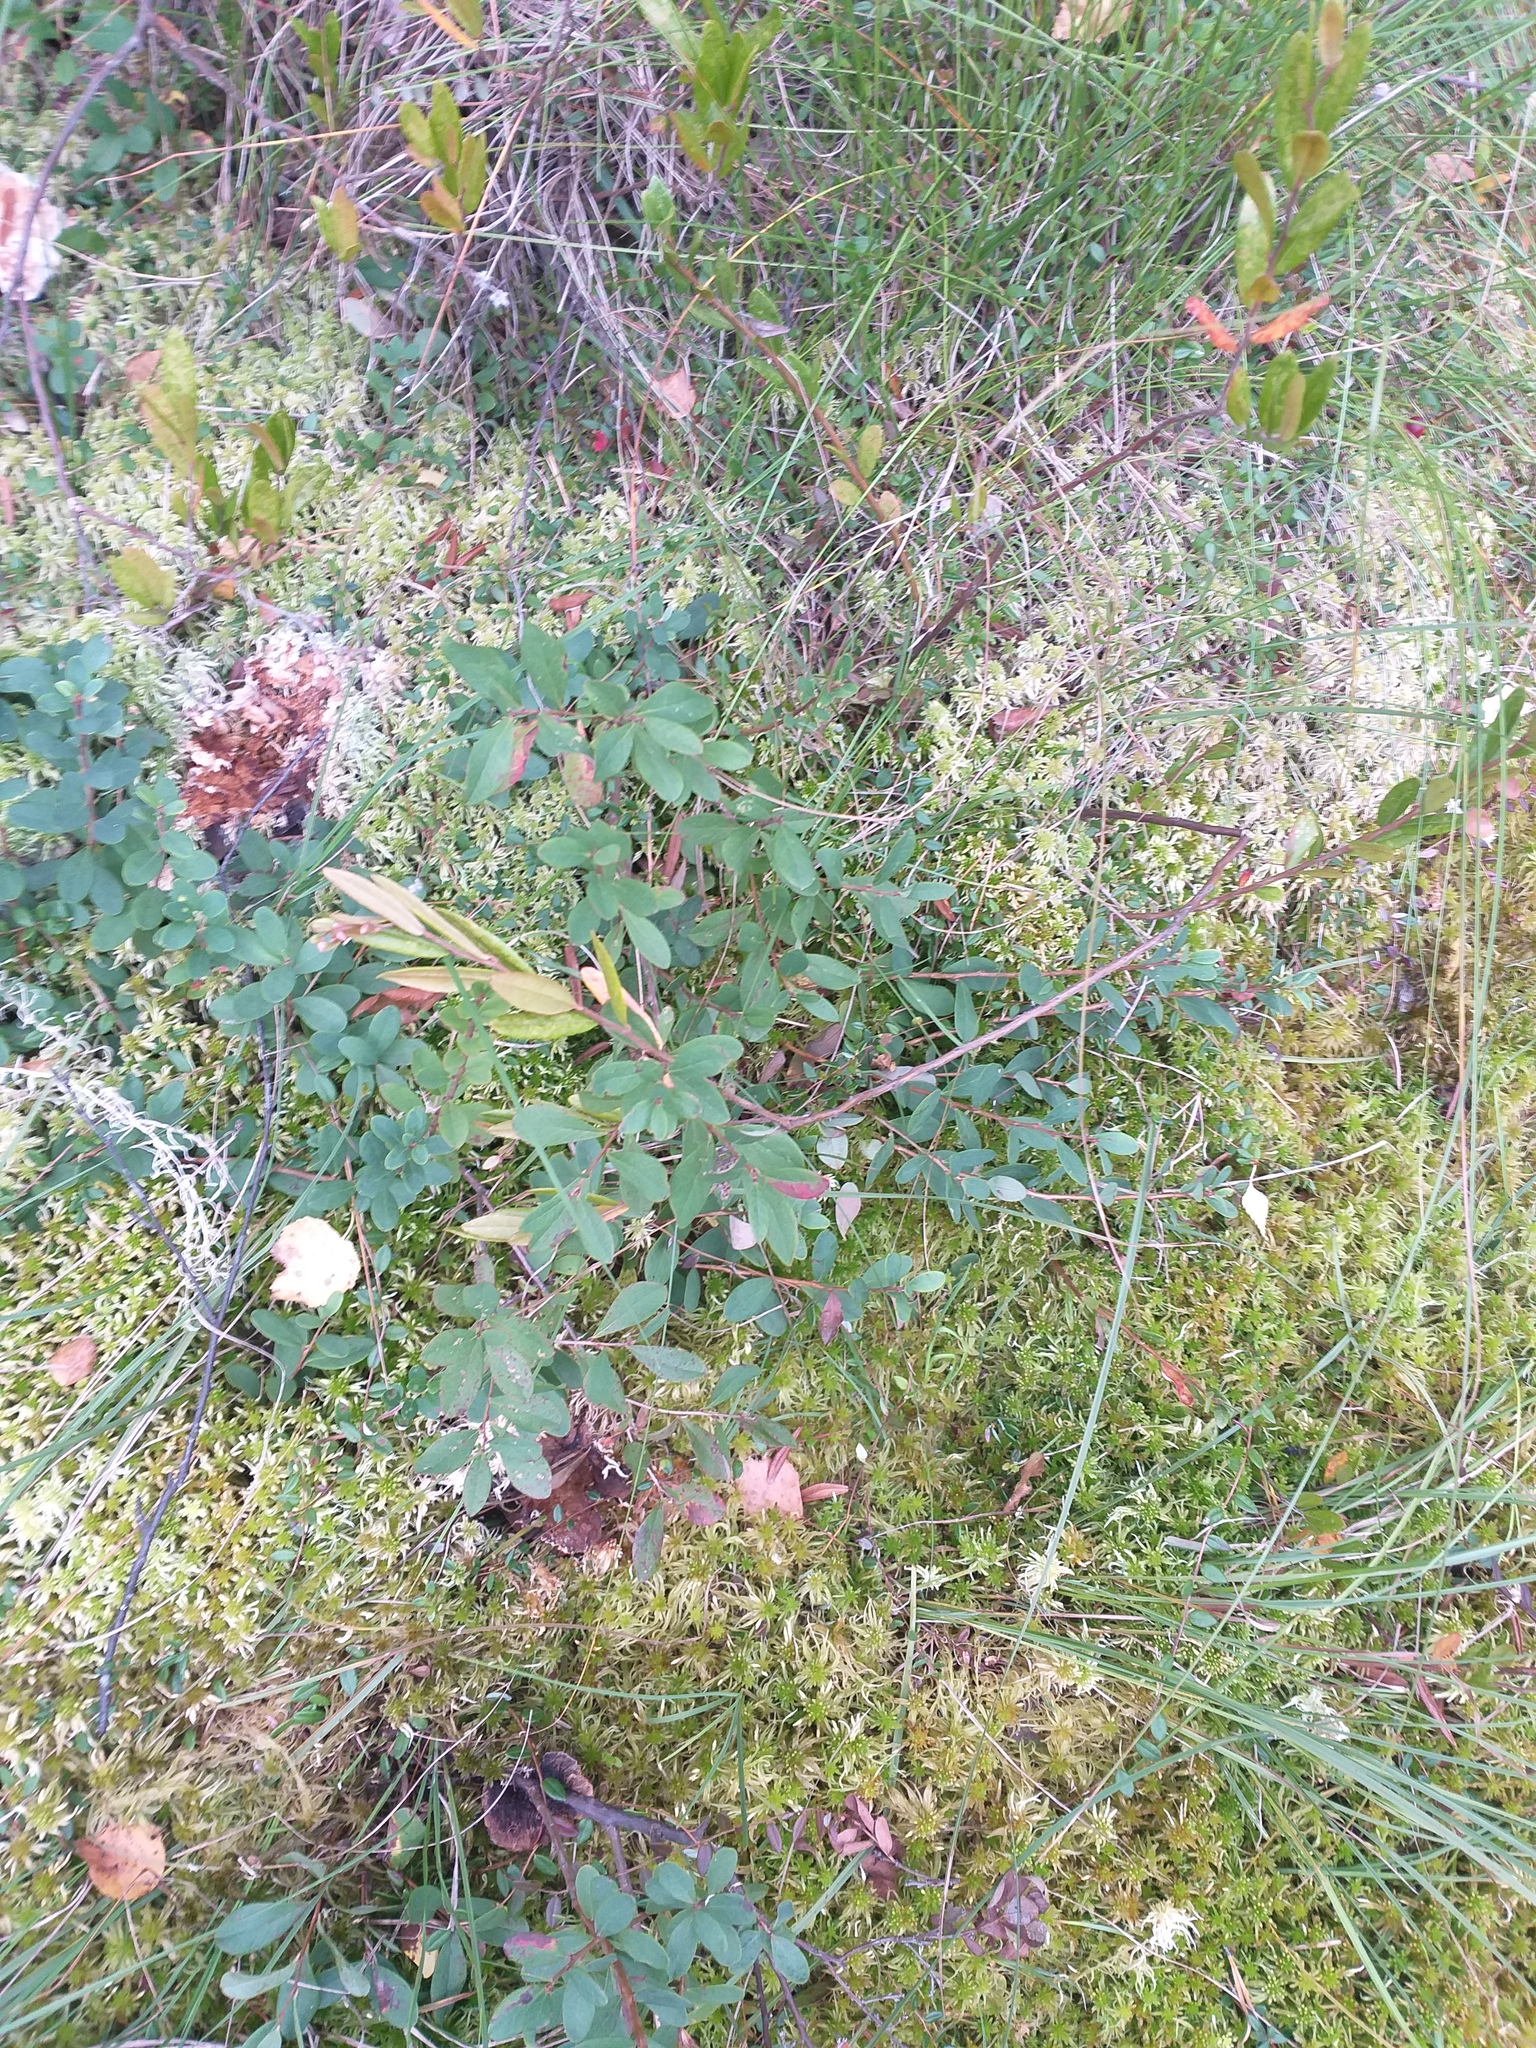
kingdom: Plantae
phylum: Tracheophyta
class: Magnoliopsida
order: Ericales
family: Ericaceae
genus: Vaccinium
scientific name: Vaccinium uliginosum
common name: Bog bilberry
